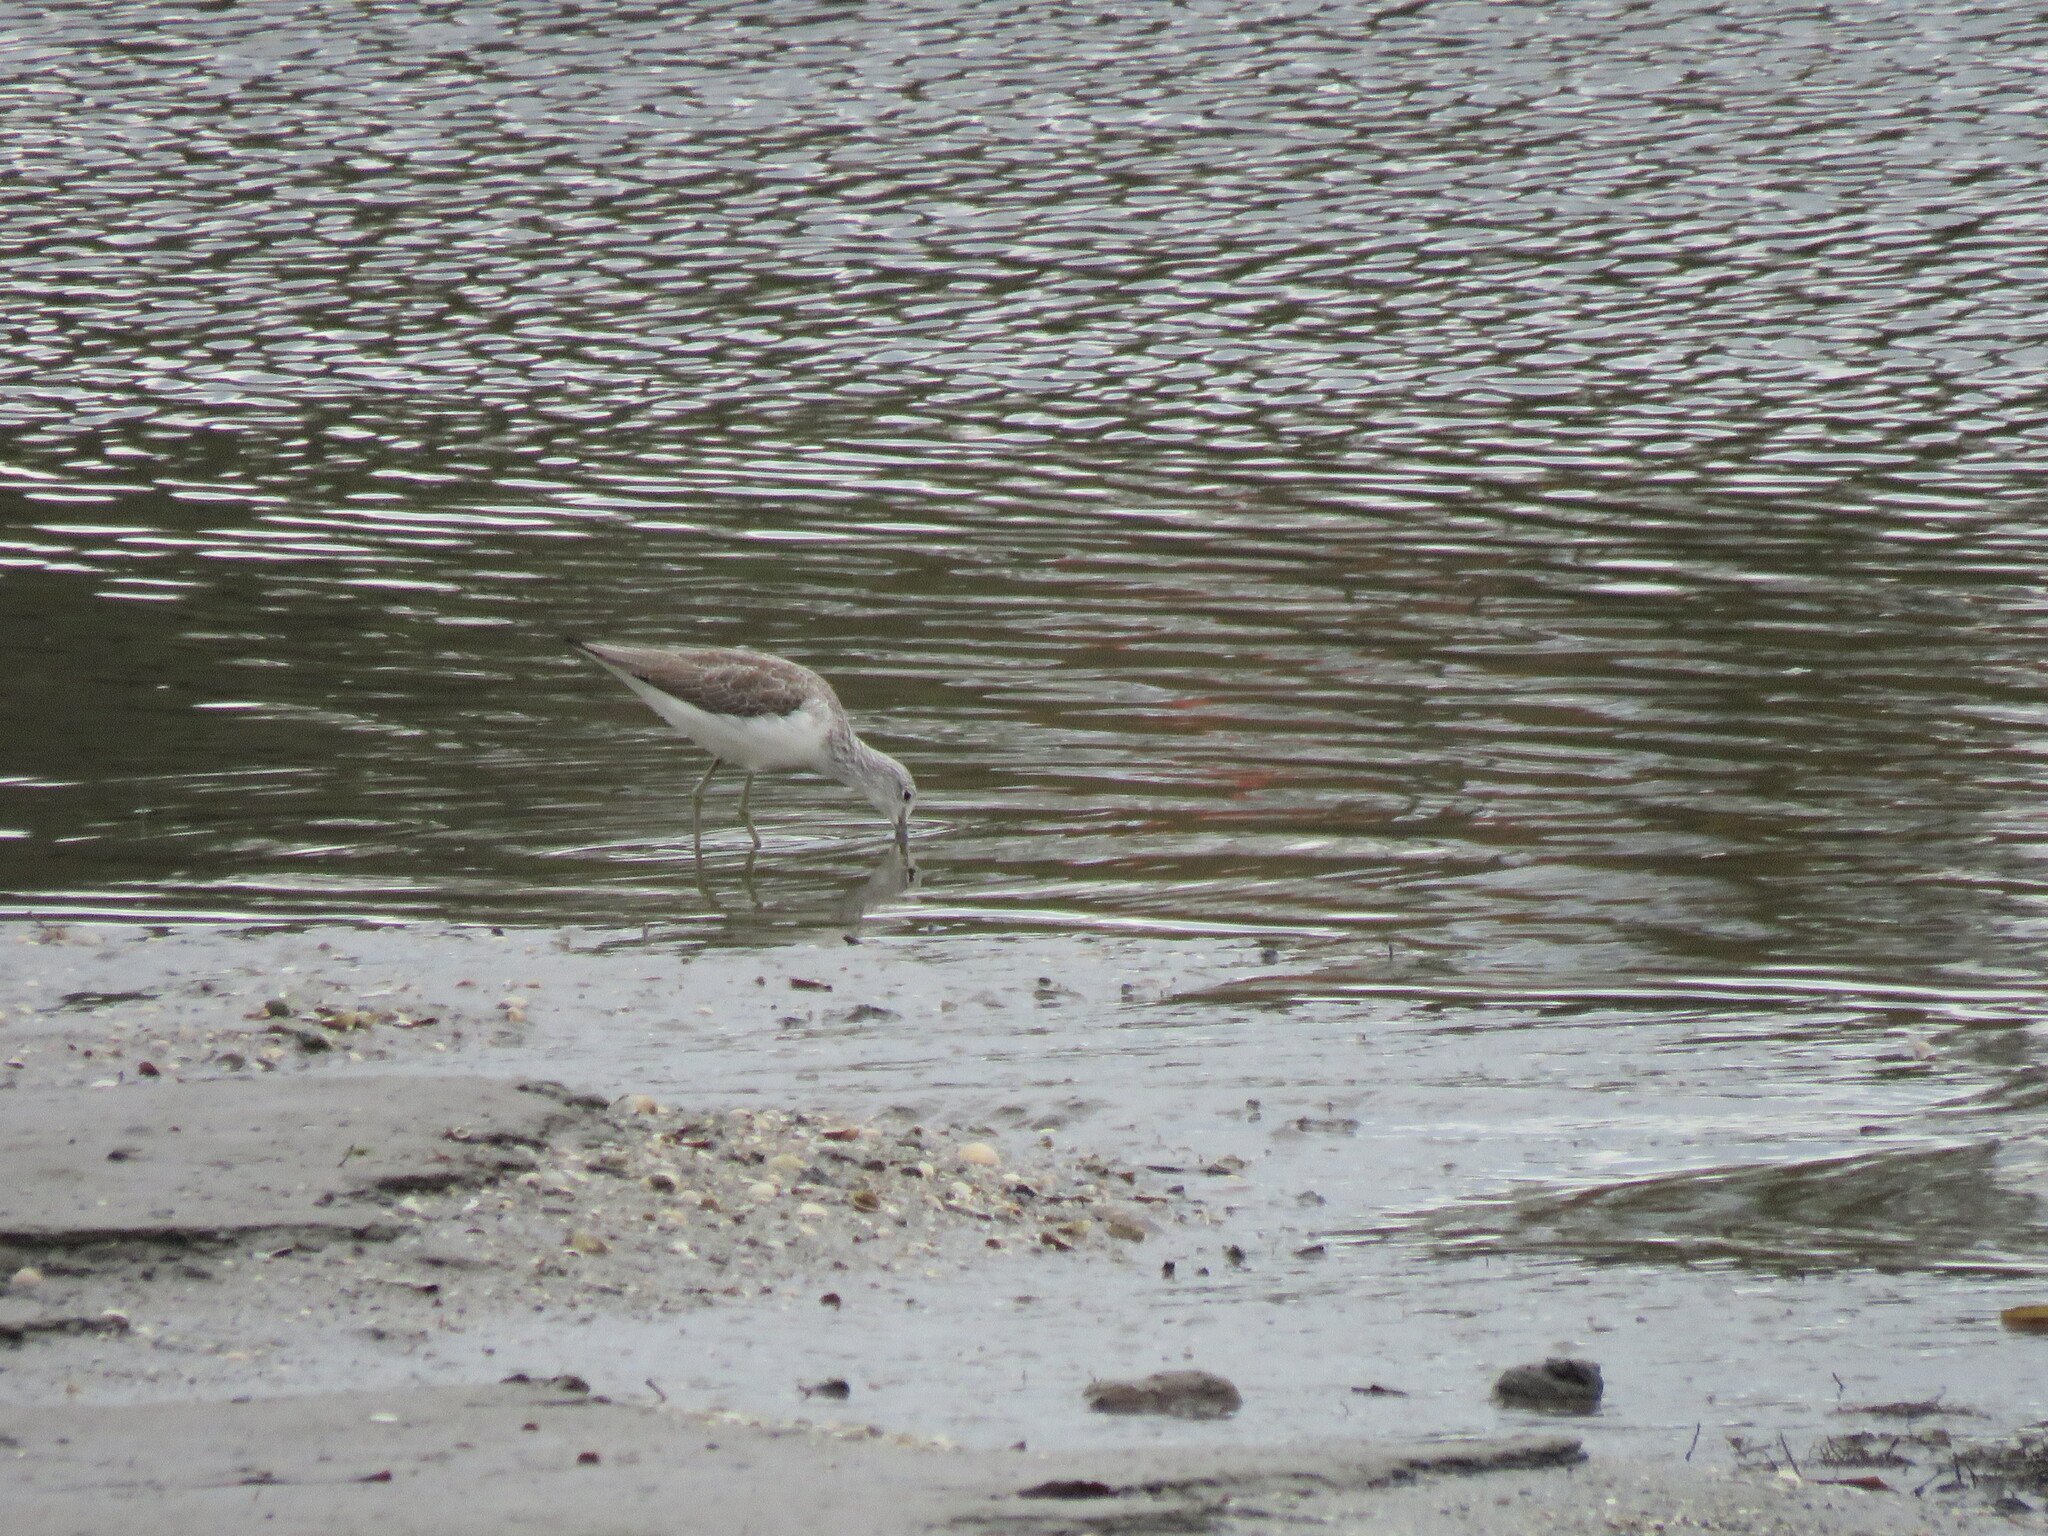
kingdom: Animalia
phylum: Chordata
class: Aves
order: Charadriiformes
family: Scolopacidae
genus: Tringa
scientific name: Tringa nebularia
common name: Common greenshank
